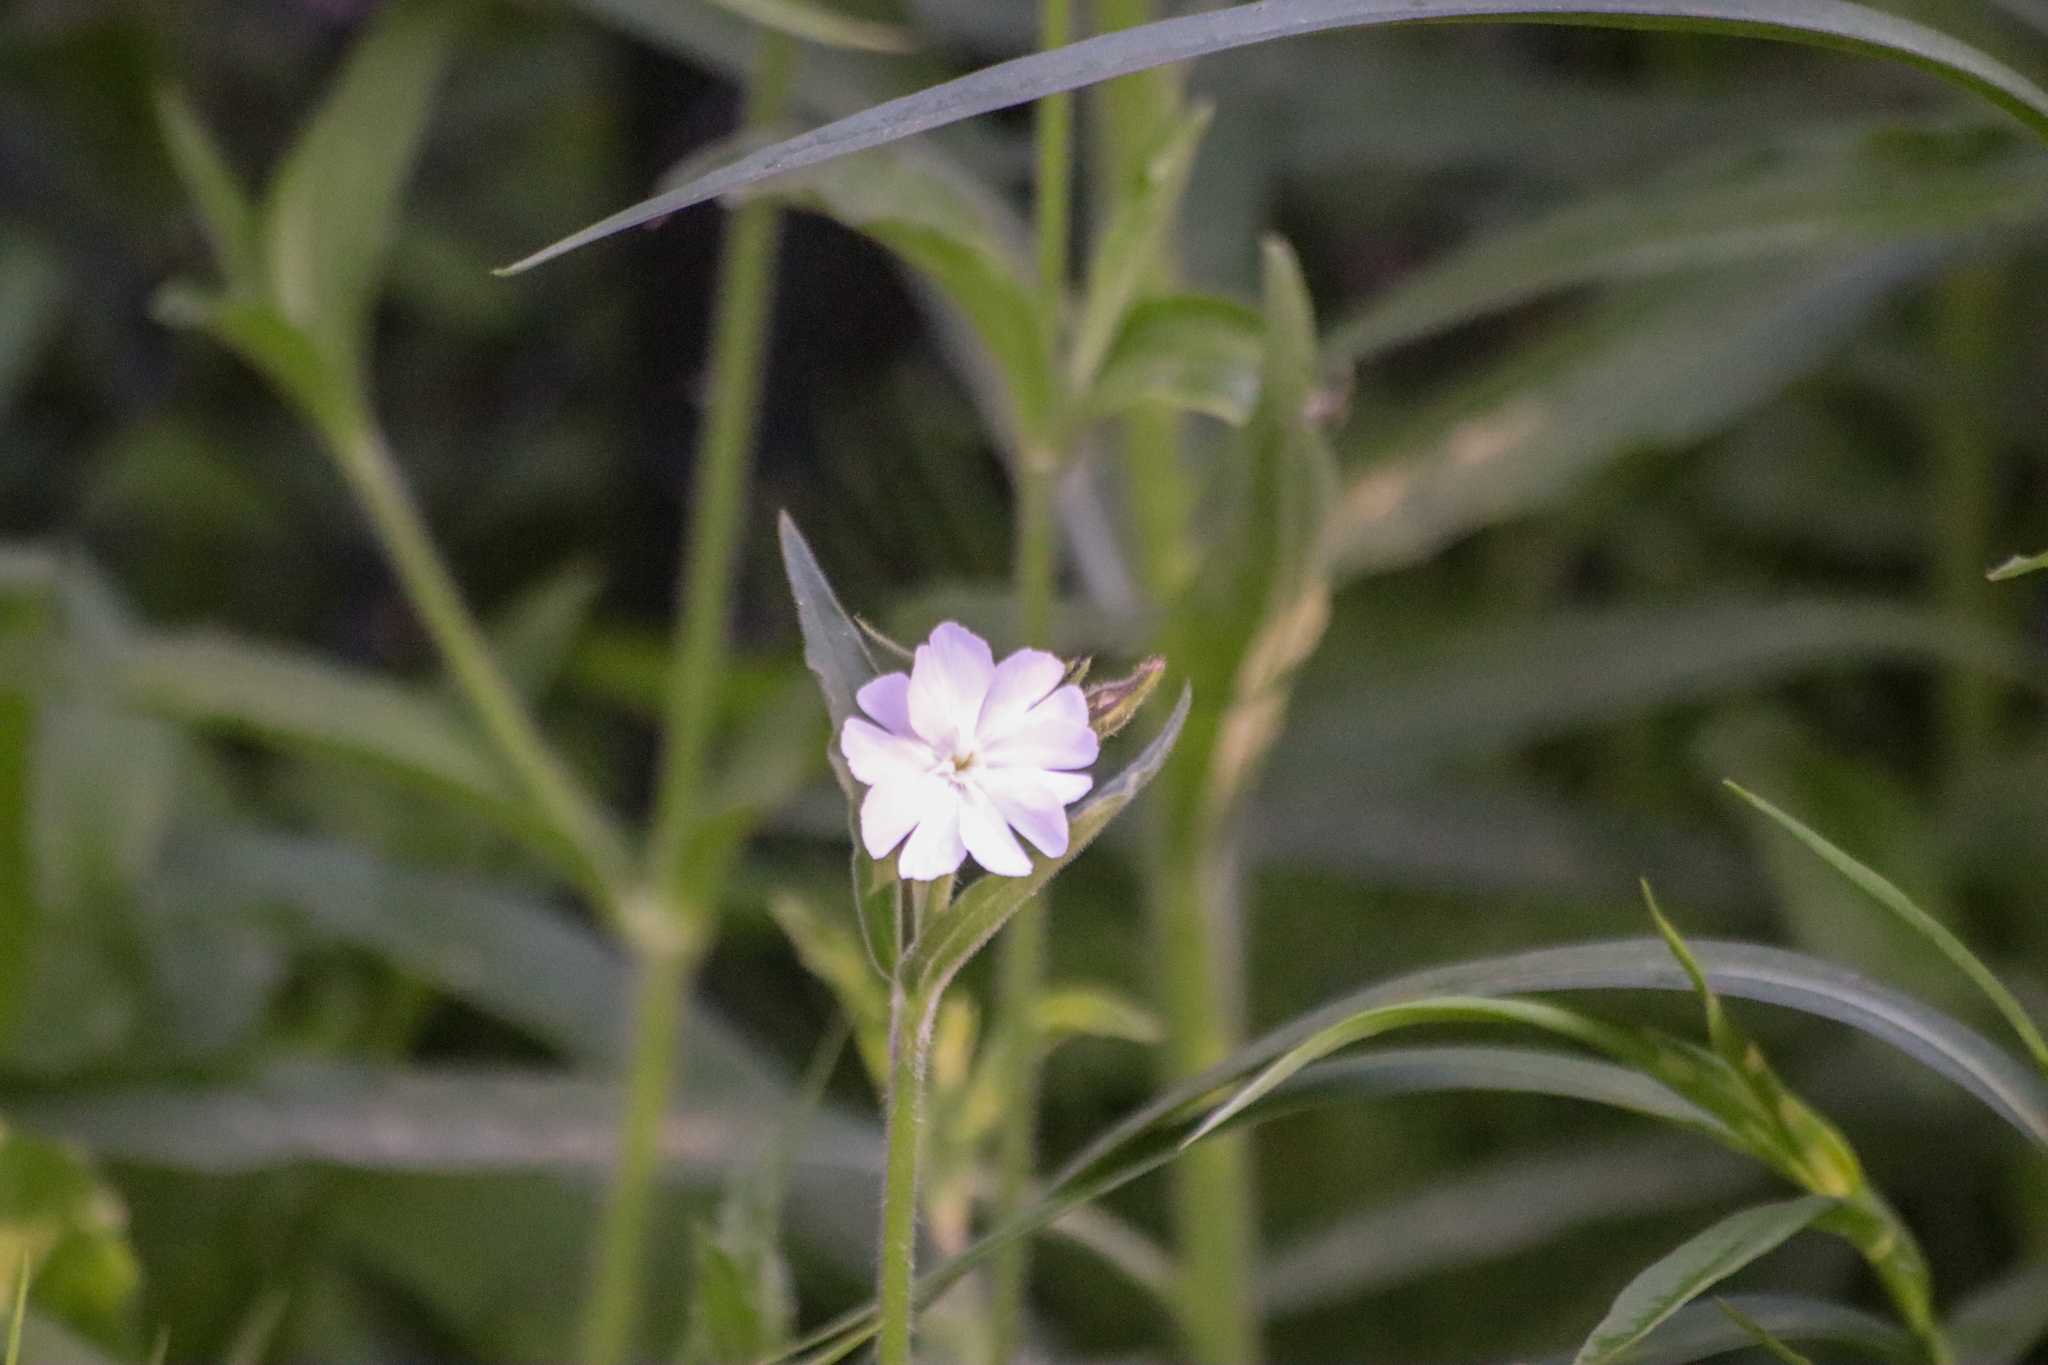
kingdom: Plantae
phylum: Tracheophyta
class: Magnoliopsida
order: Caryophyllales
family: Caryophyllaceae
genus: Silene
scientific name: Silene latifolia
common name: White campion
